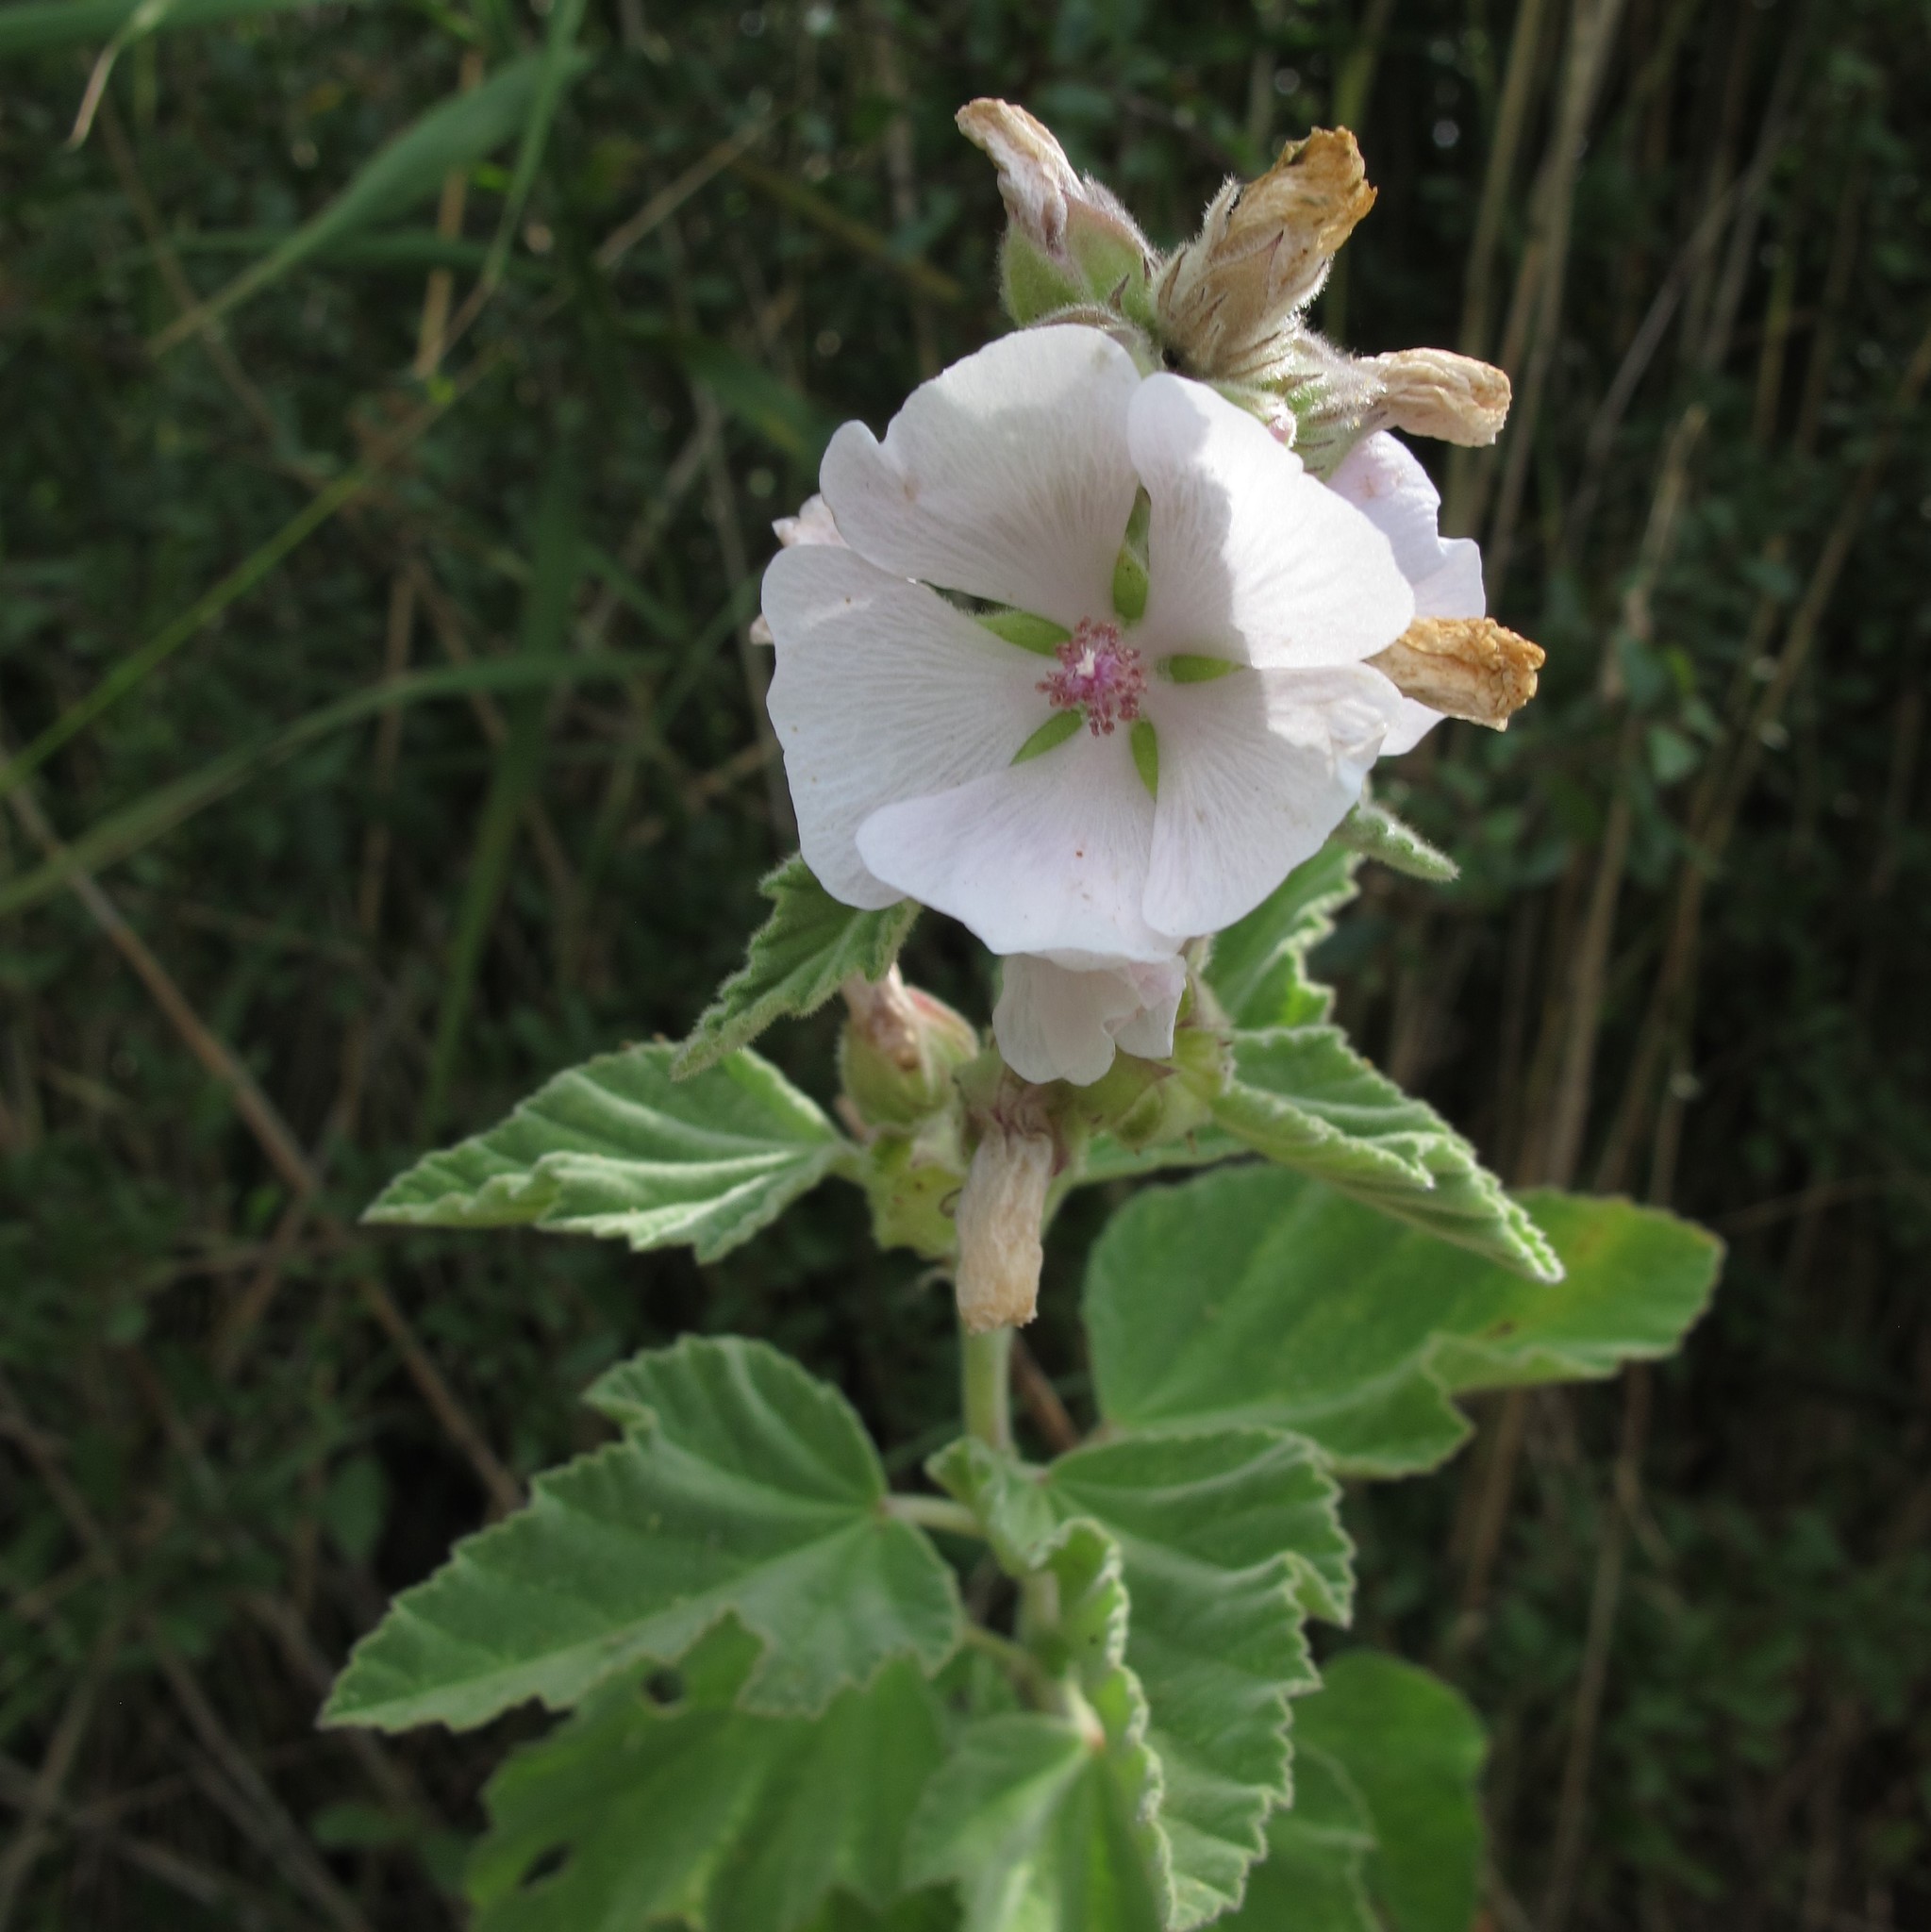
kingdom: Plantae
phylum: Tracheophyta
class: Magnoliopsida
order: Malvales
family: Malvaceae
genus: Althaea
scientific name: Althaea officinalis
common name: Marsh-mallow
